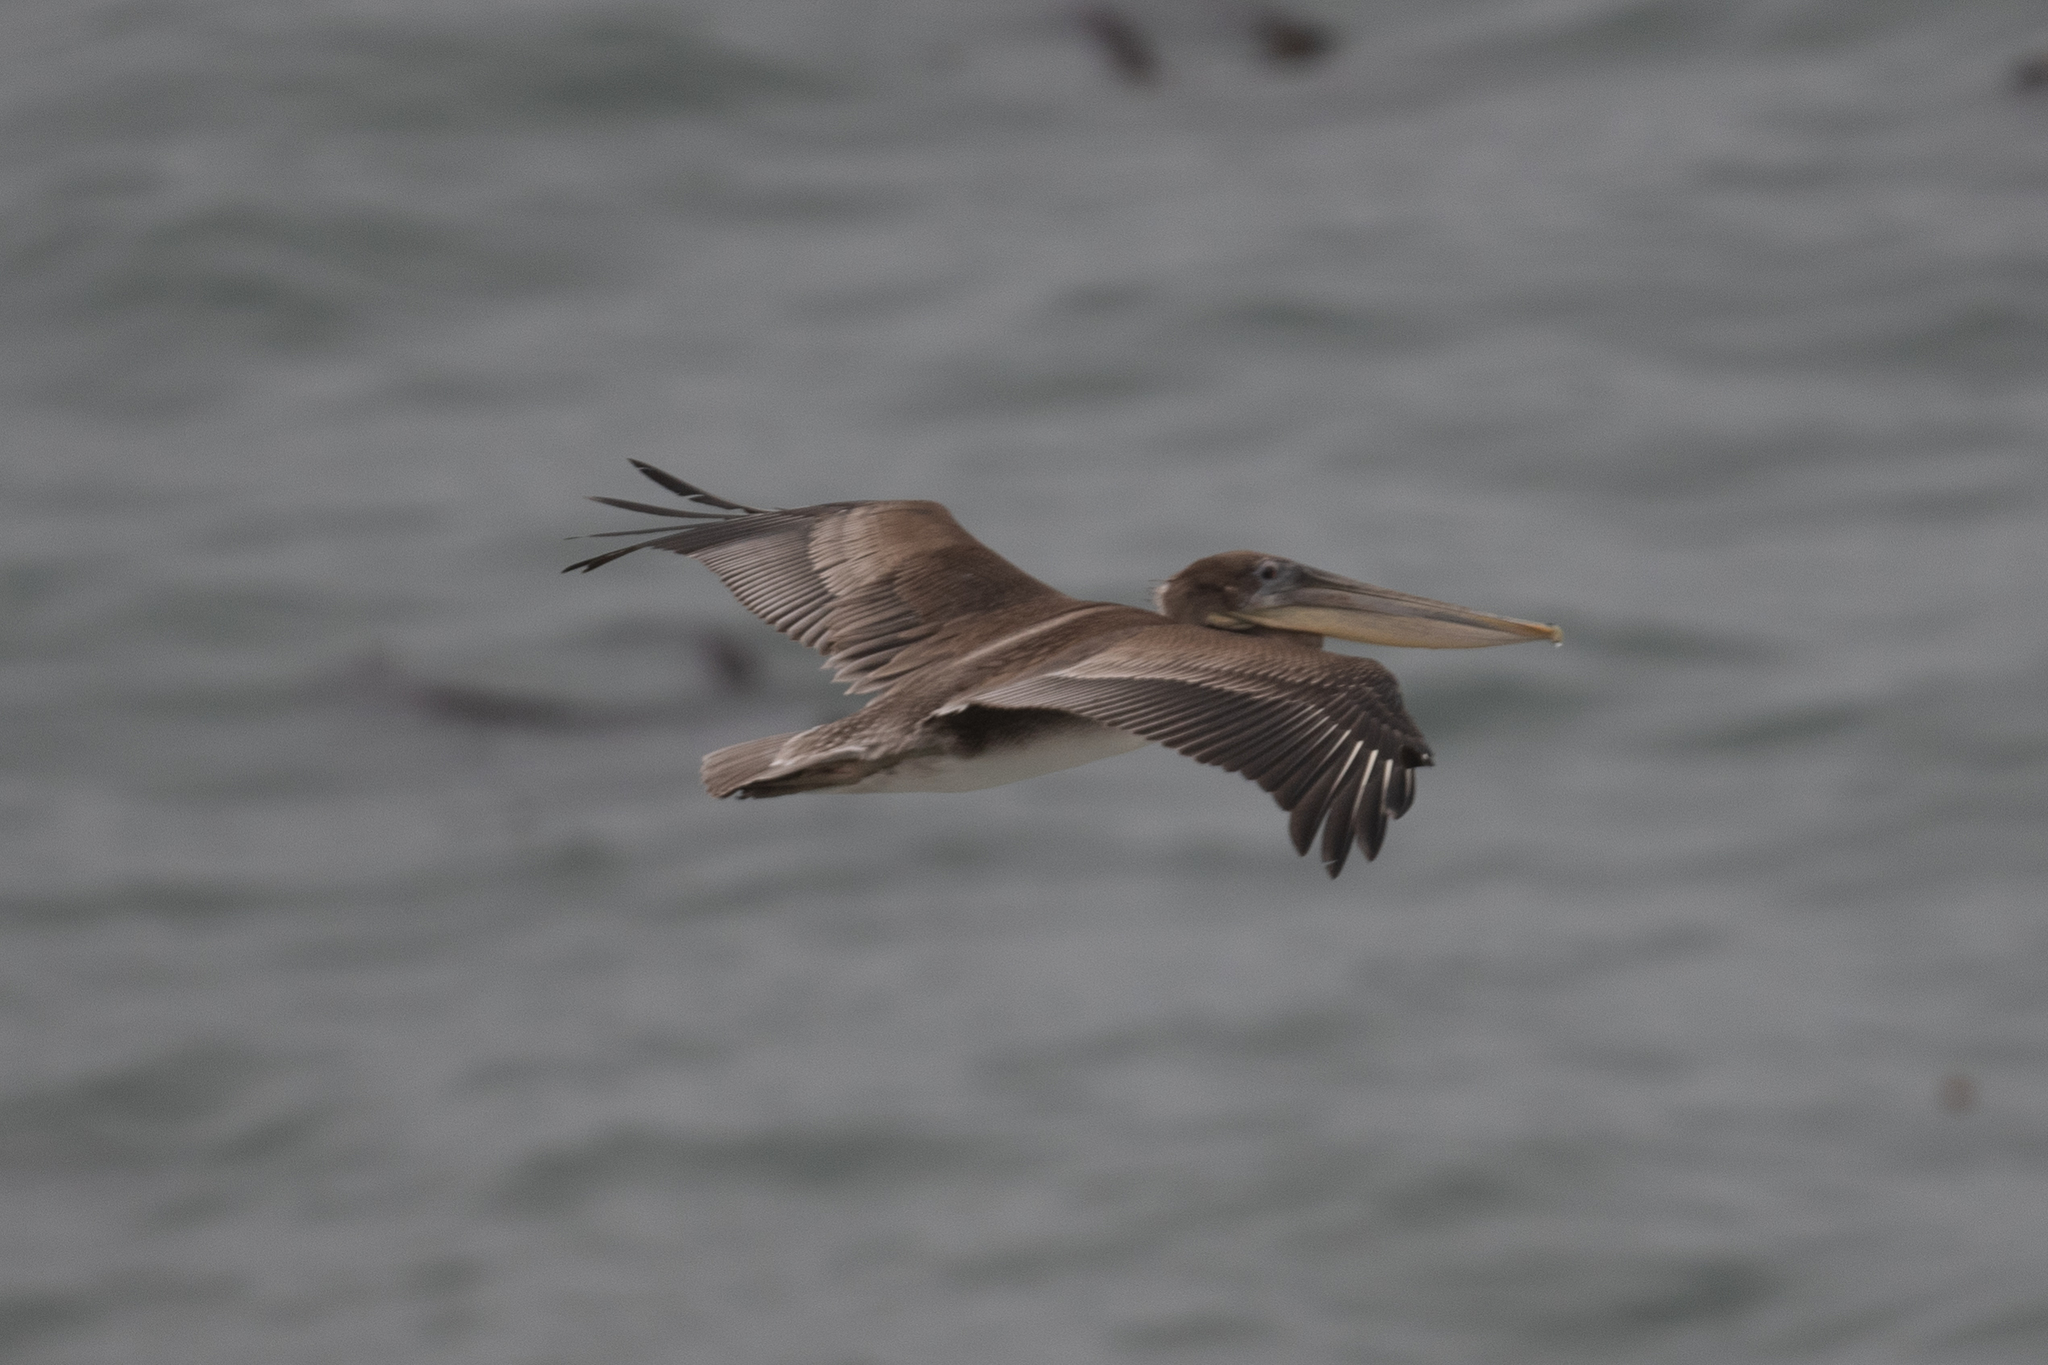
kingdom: Animalia
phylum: Chordata
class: Aves
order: Pelecaniformes
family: Pelecanidae
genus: Pelecanus
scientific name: Pelecanus occidentalis
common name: Brown pelican
